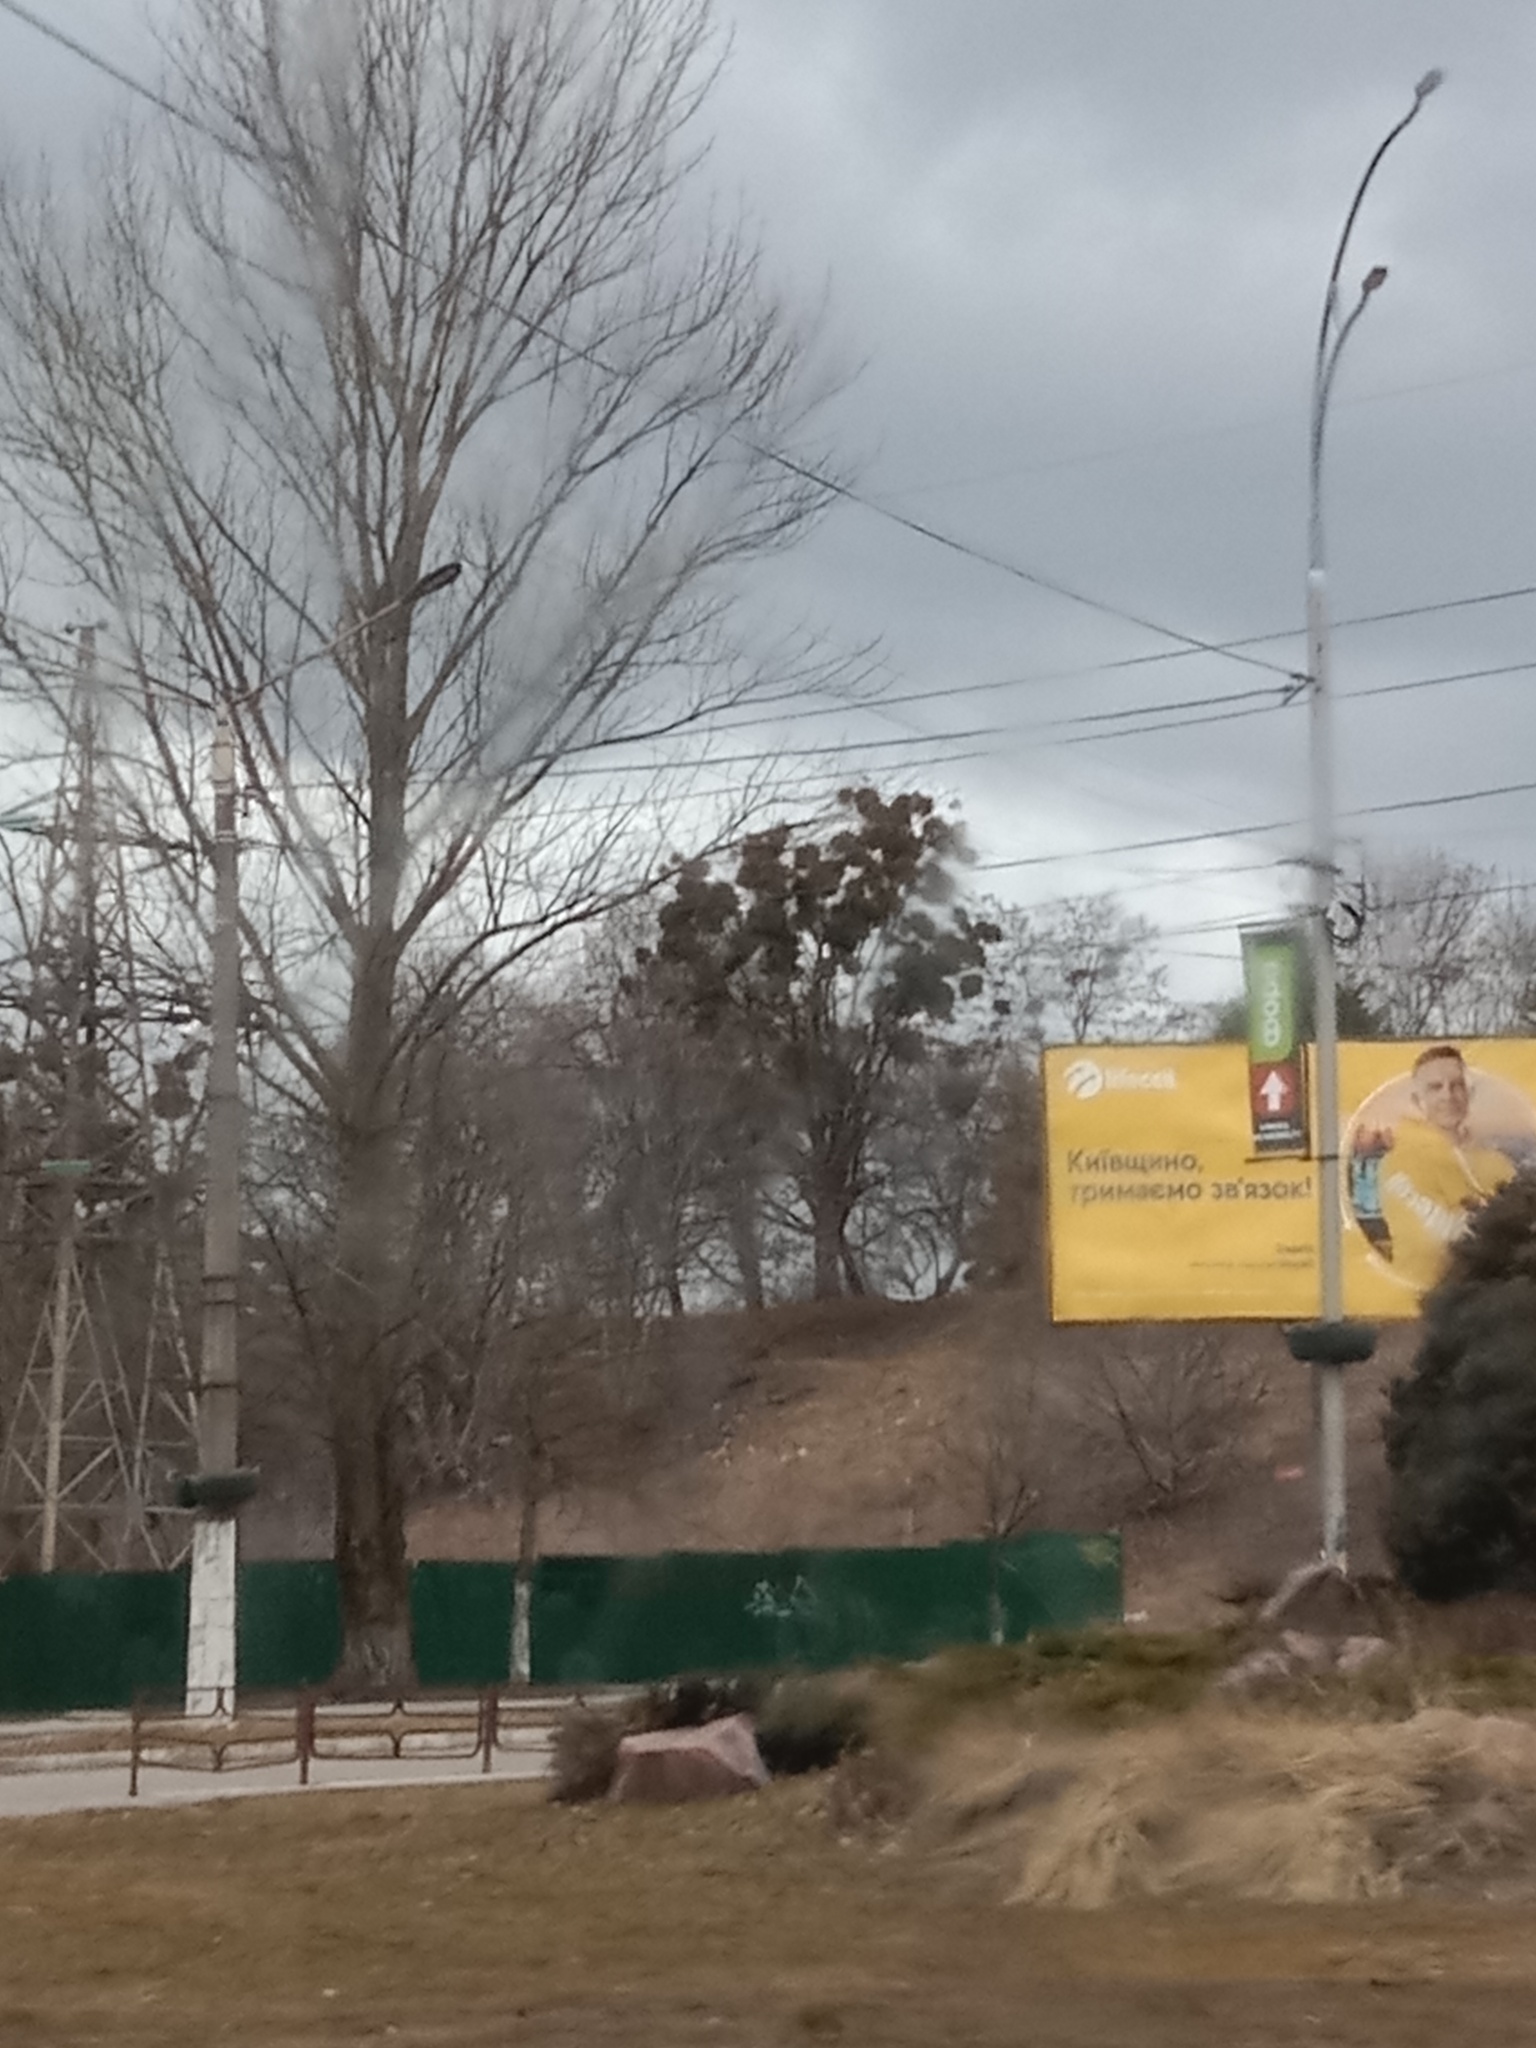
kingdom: Plantae
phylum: Tracheophyta
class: Magnoliopsida
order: Santalales
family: Viscaceae
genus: Viscum
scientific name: Viscum album
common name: Mistletoe
